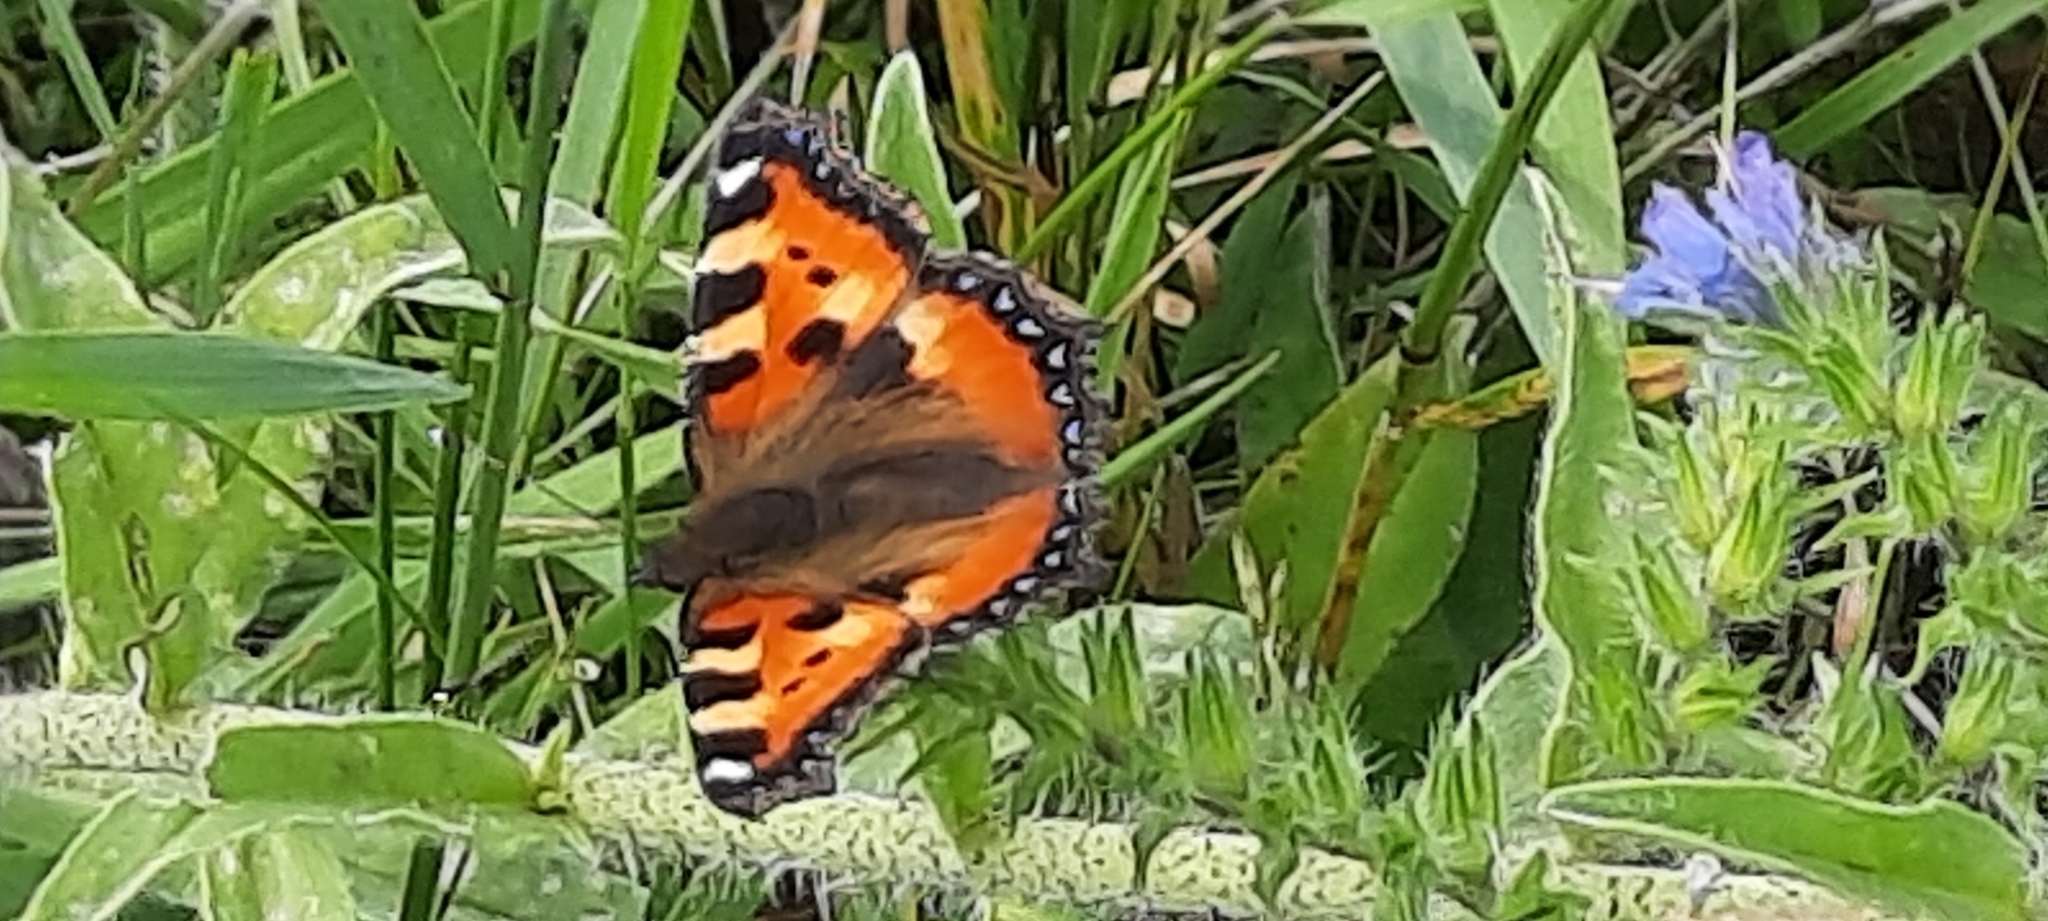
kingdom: Animalia
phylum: Arthropoda
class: Insecta
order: Lepidoptera
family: Nymphalidae
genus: Aglais
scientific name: Aglais urticae
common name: Small tortoiseshell
